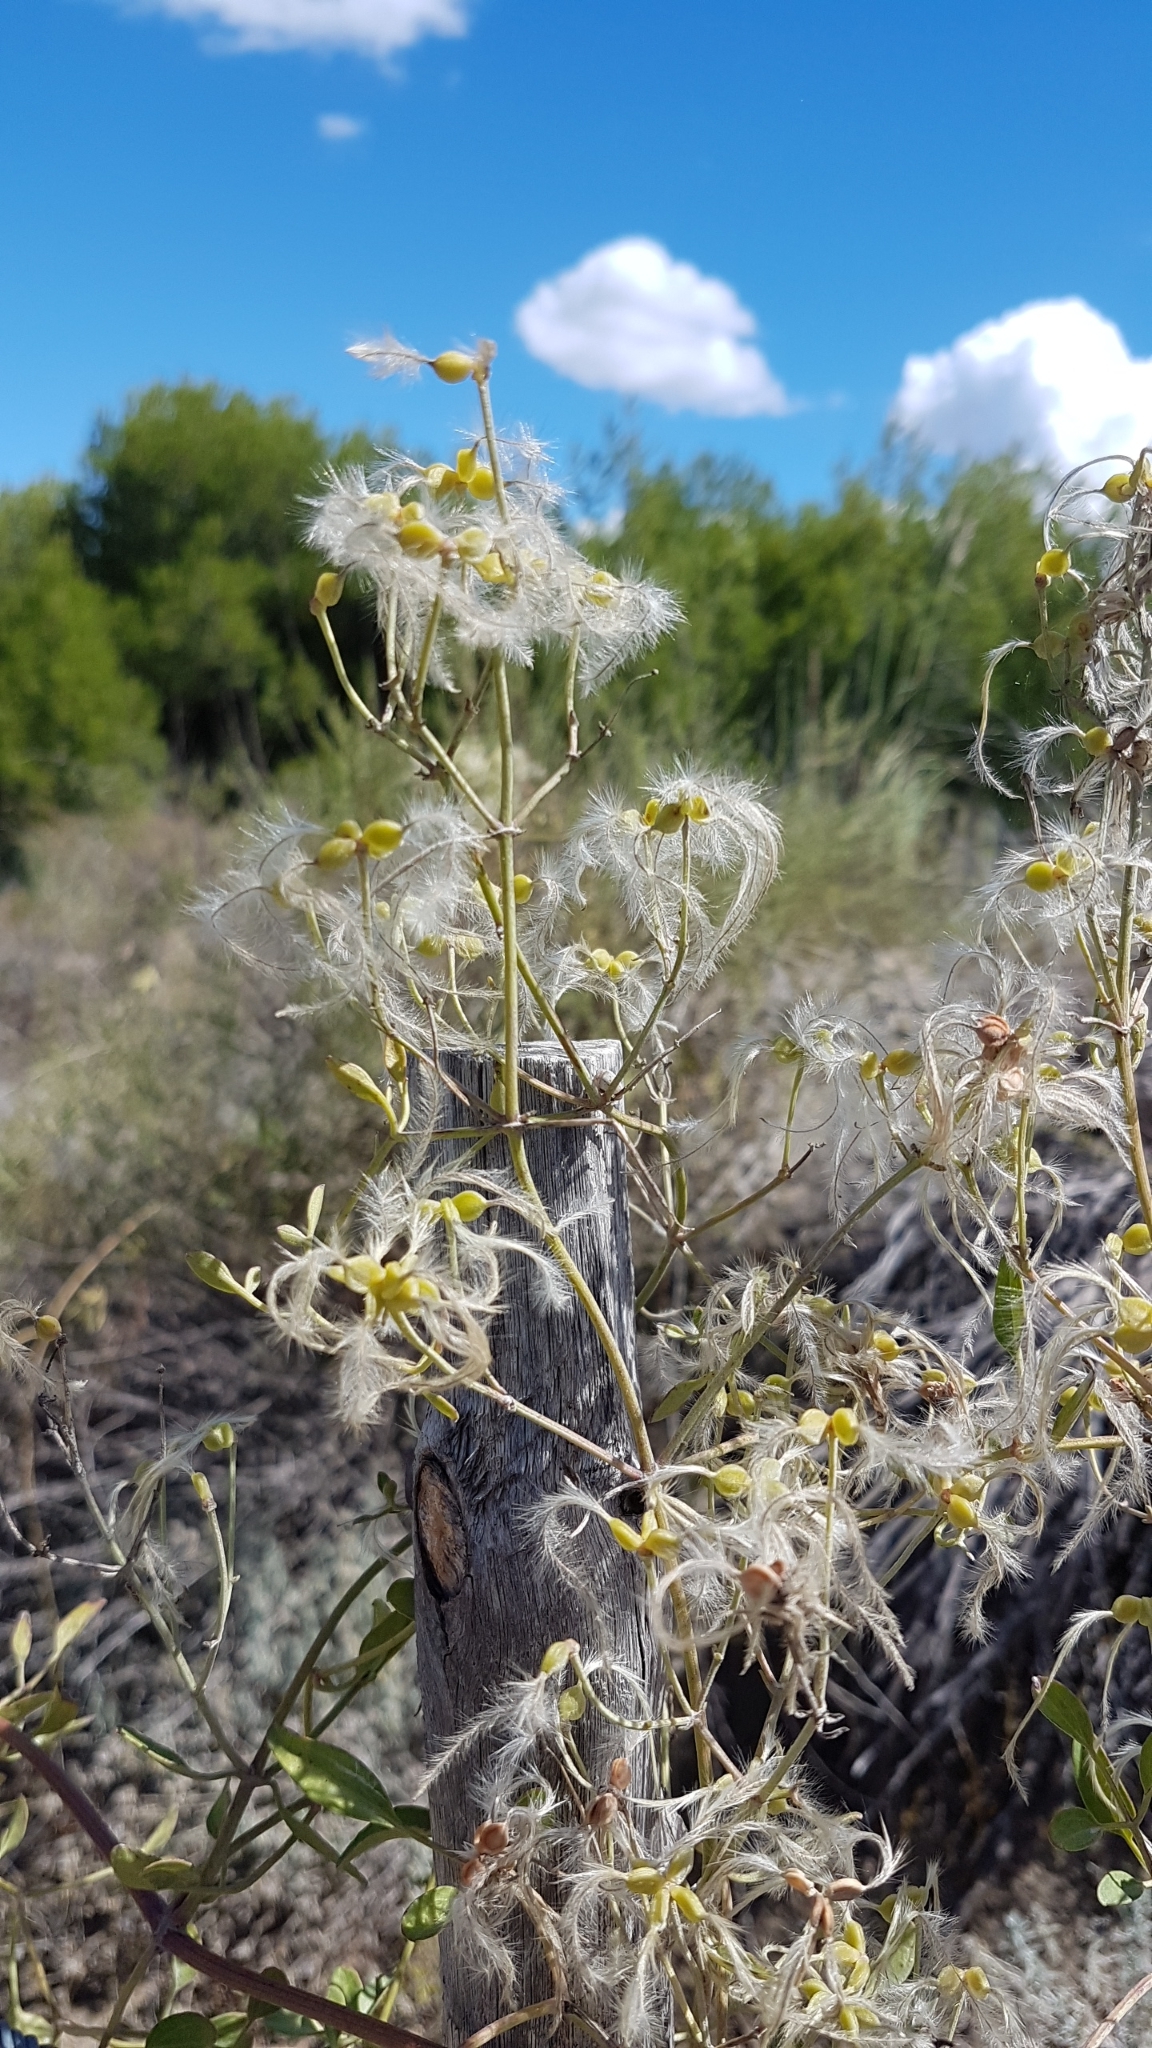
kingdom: Plantae
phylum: Tracheophyta
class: Magnoliopsida
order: Ranunculales
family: Ranunculaceae
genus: Clematis
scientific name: Clematis flammula
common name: Virgin's-bower
